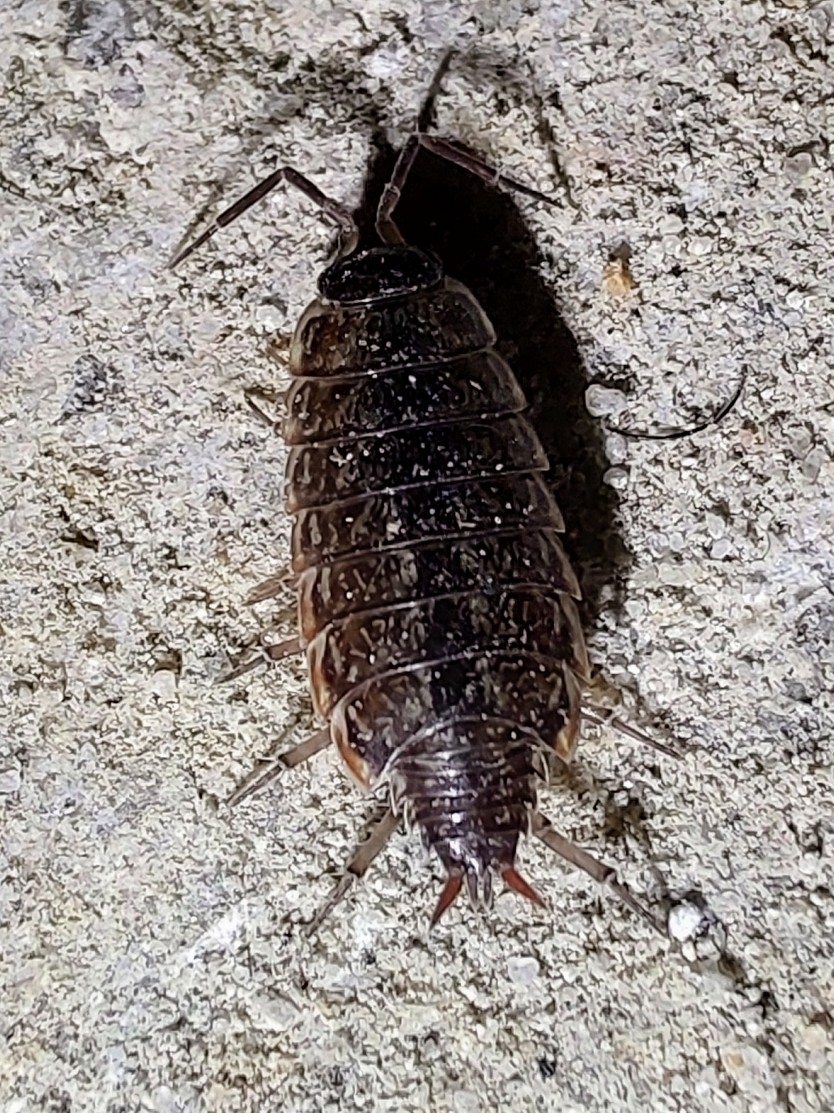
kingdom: Animalia
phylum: Arthropoda
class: Malacostraca
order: Isopoda
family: Philosciidae
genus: Philoscia
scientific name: Philoscia muscorum
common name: Common striped woodlouse
